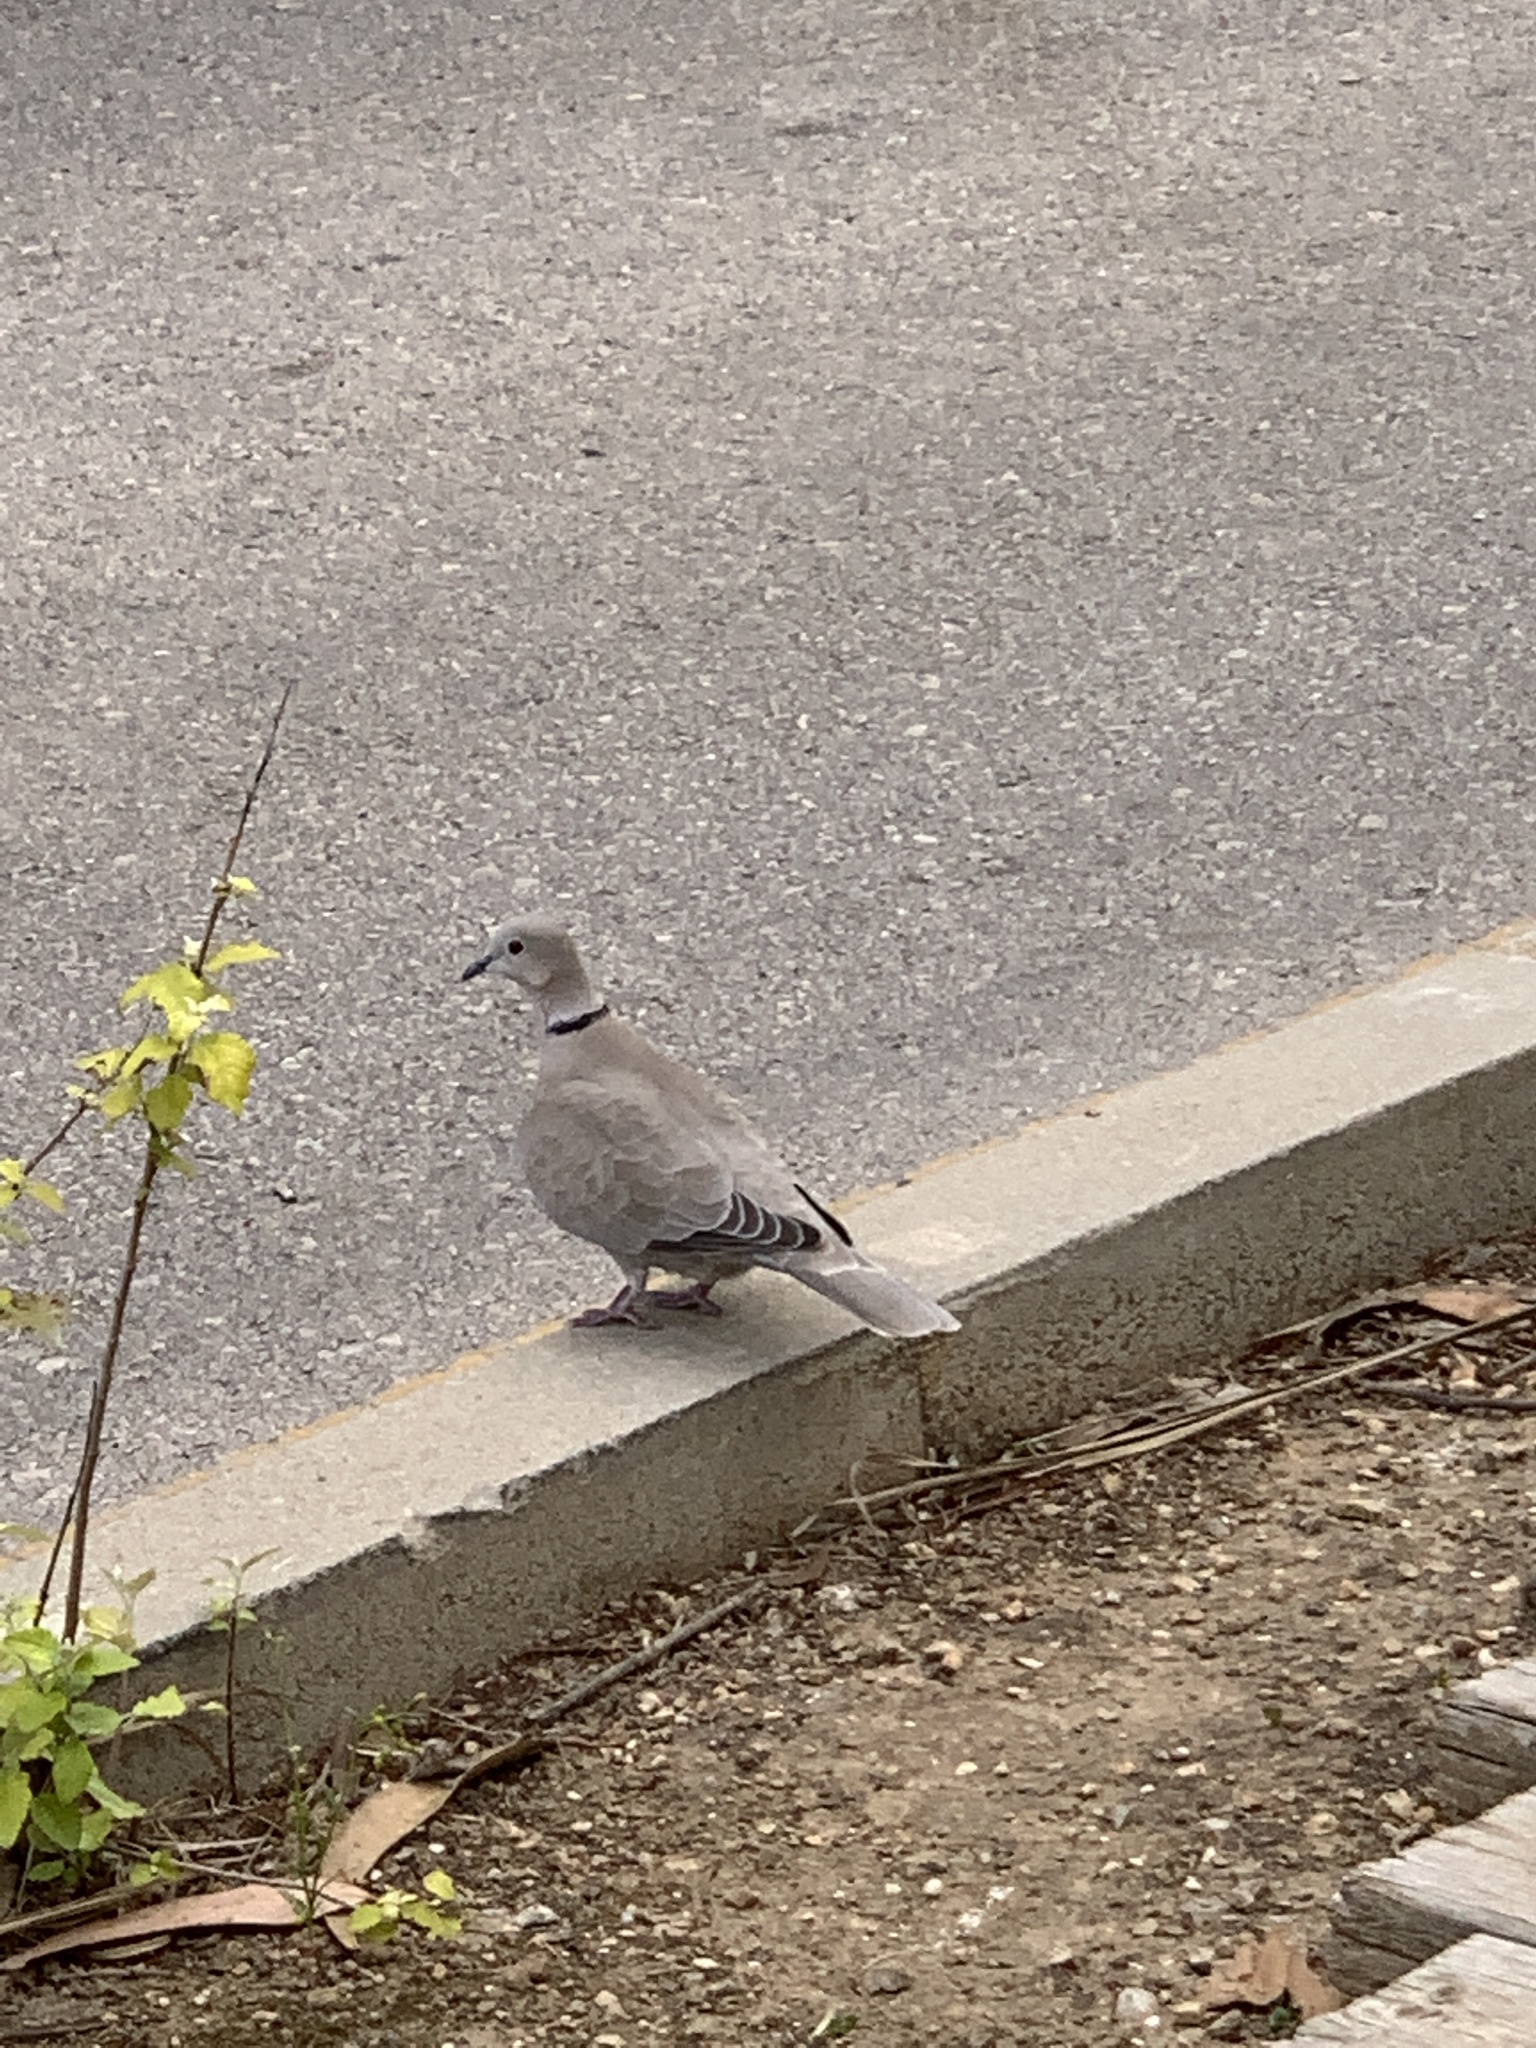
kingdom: Animalia
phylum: Chordata
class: Aves
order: Columbiformes
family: Columbidae
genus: Streptopelia
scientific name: Streptopelia decaocto
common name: Eurasian collared dove
